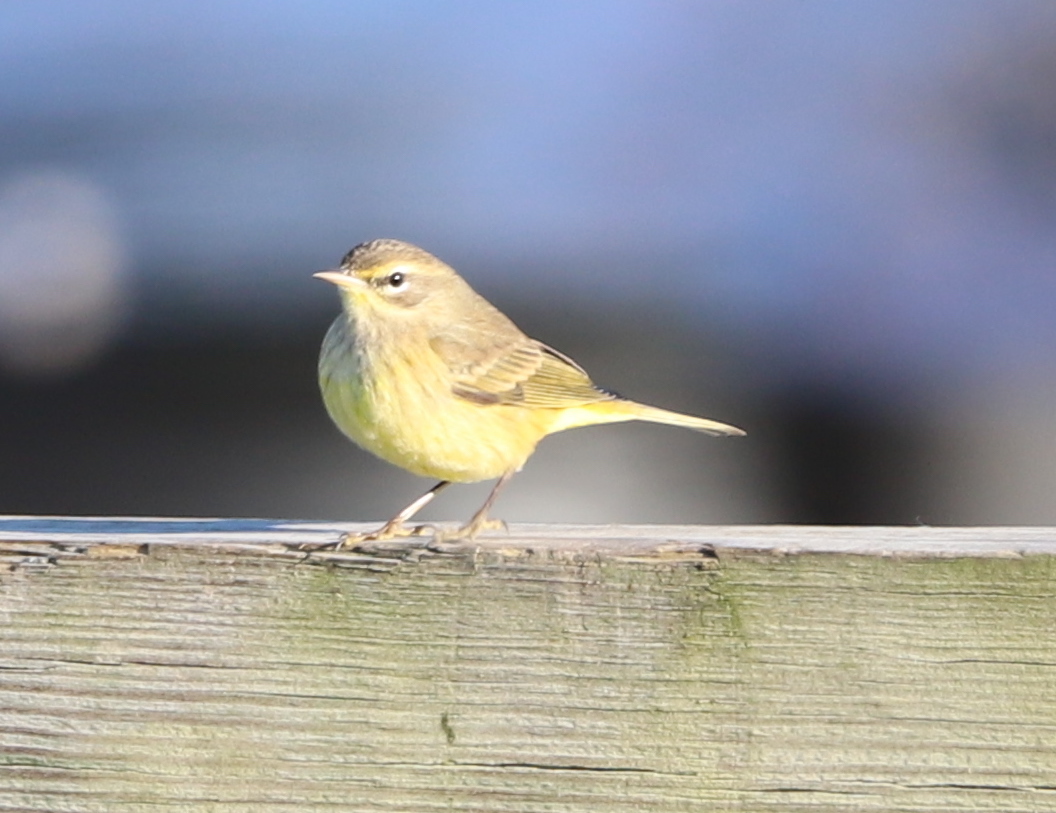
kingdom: Animalia
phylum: Chordata
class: Aves
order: Passeriformes
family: Parulidae
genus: Setophaga
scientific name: Setophaga palmarum
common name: Palm warbler
